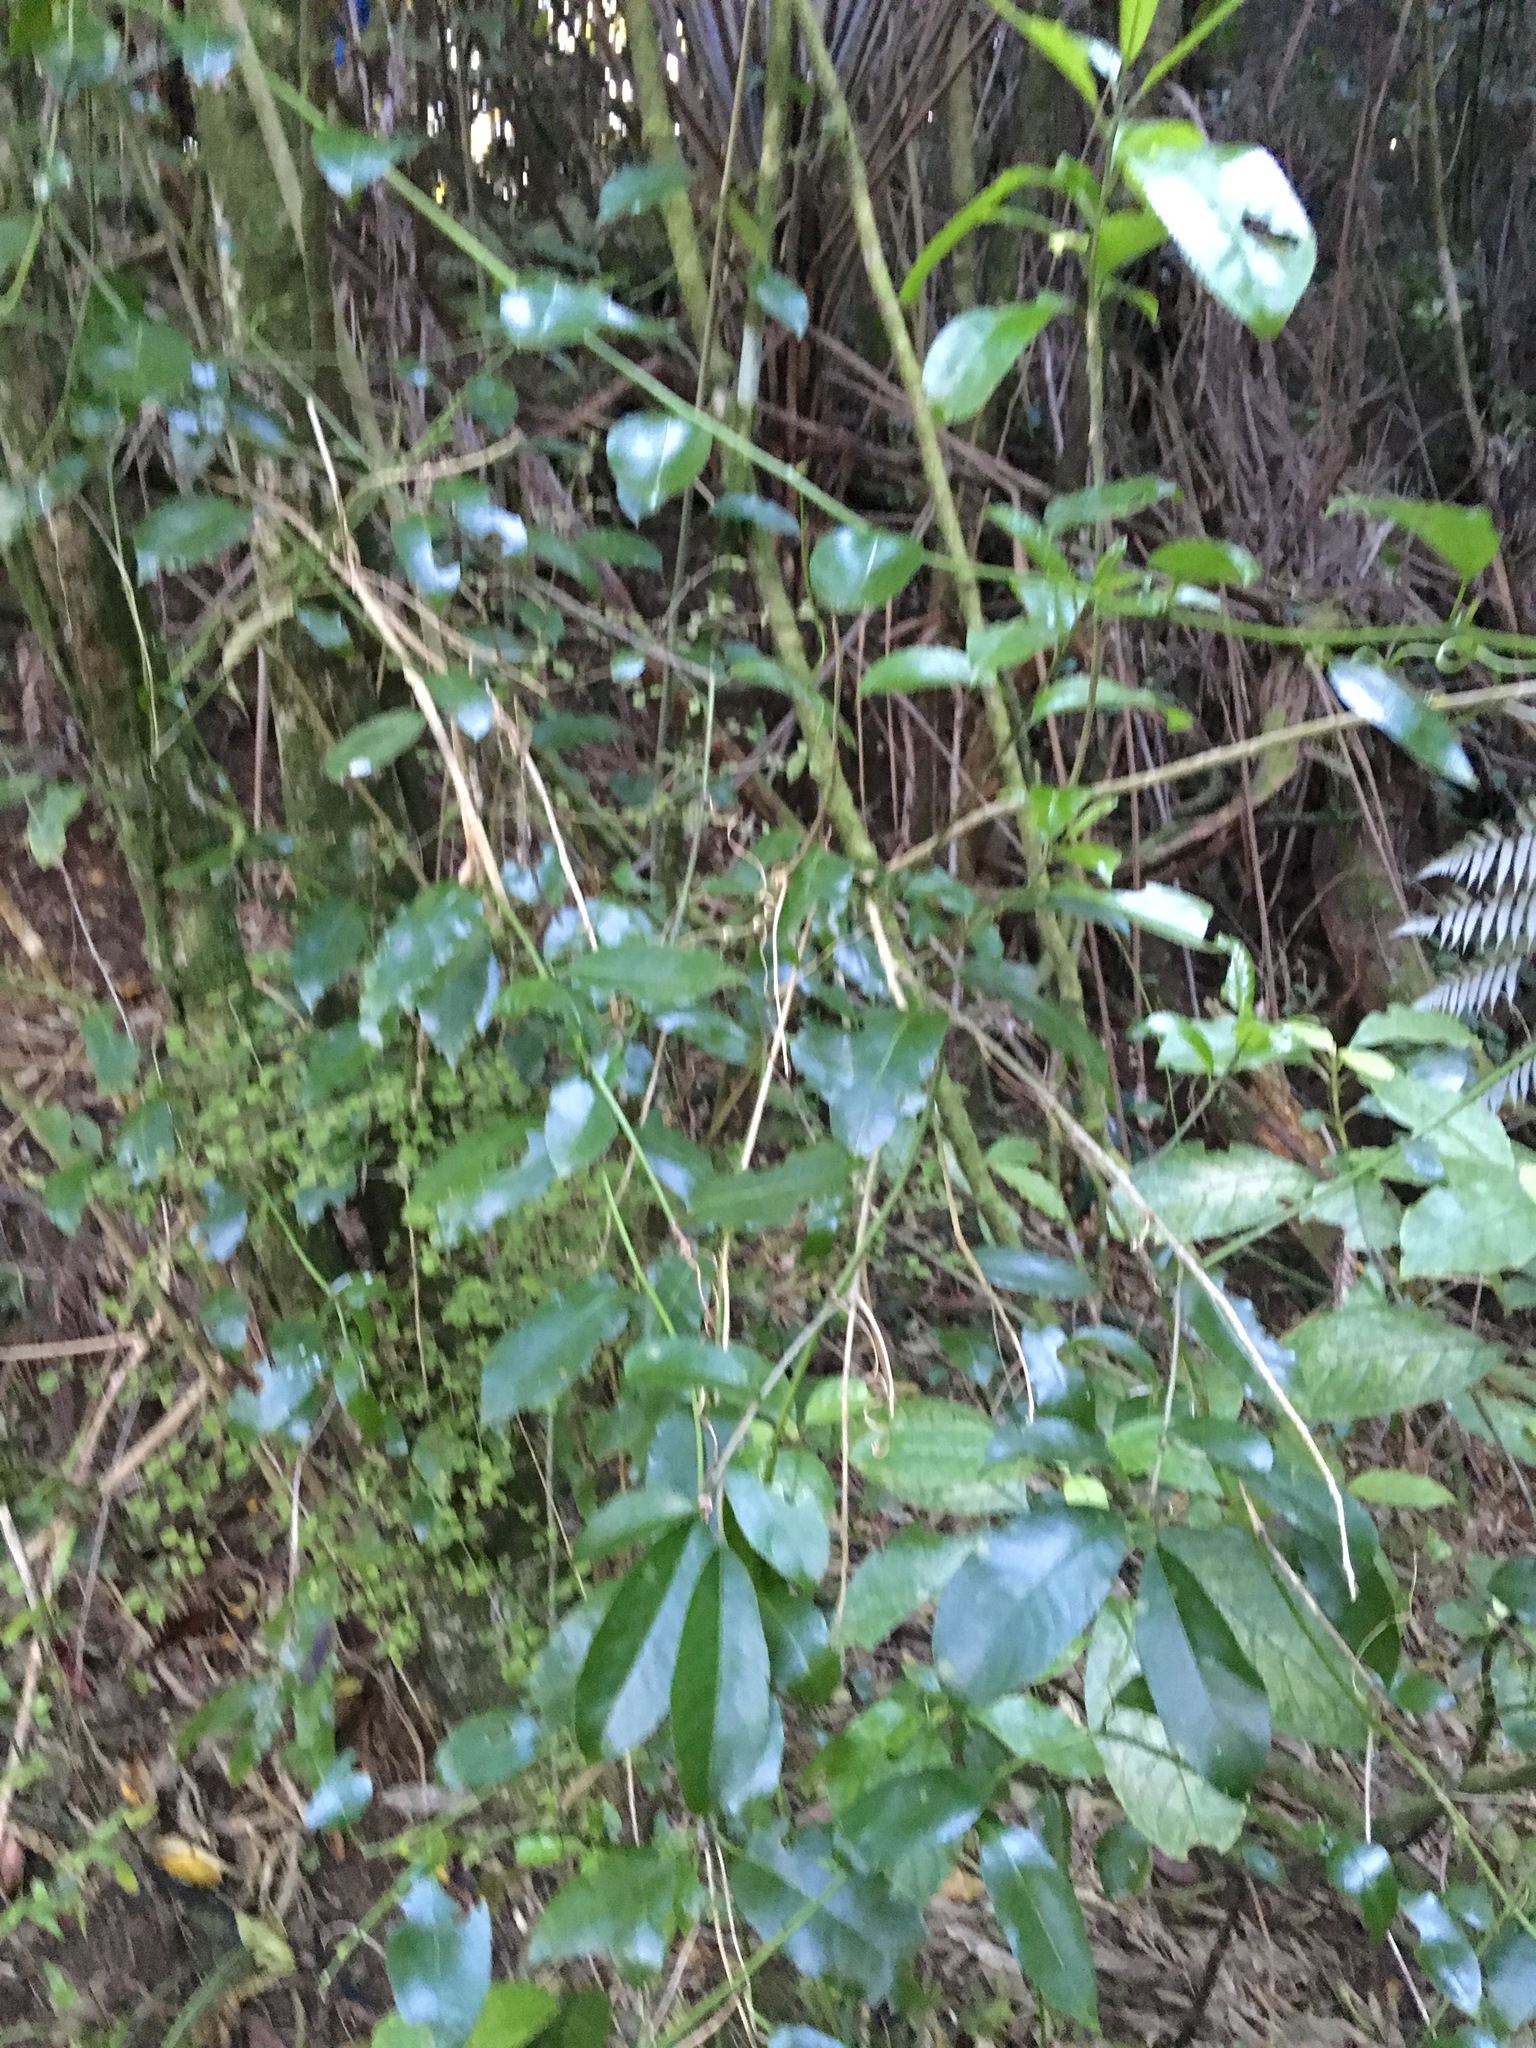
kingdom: Plantae
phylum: Tracheophyta
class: Magnoliopsida
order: Malpighiales
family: Passifloraceae
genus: Passiflora
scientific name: Passiflora tetrandra
